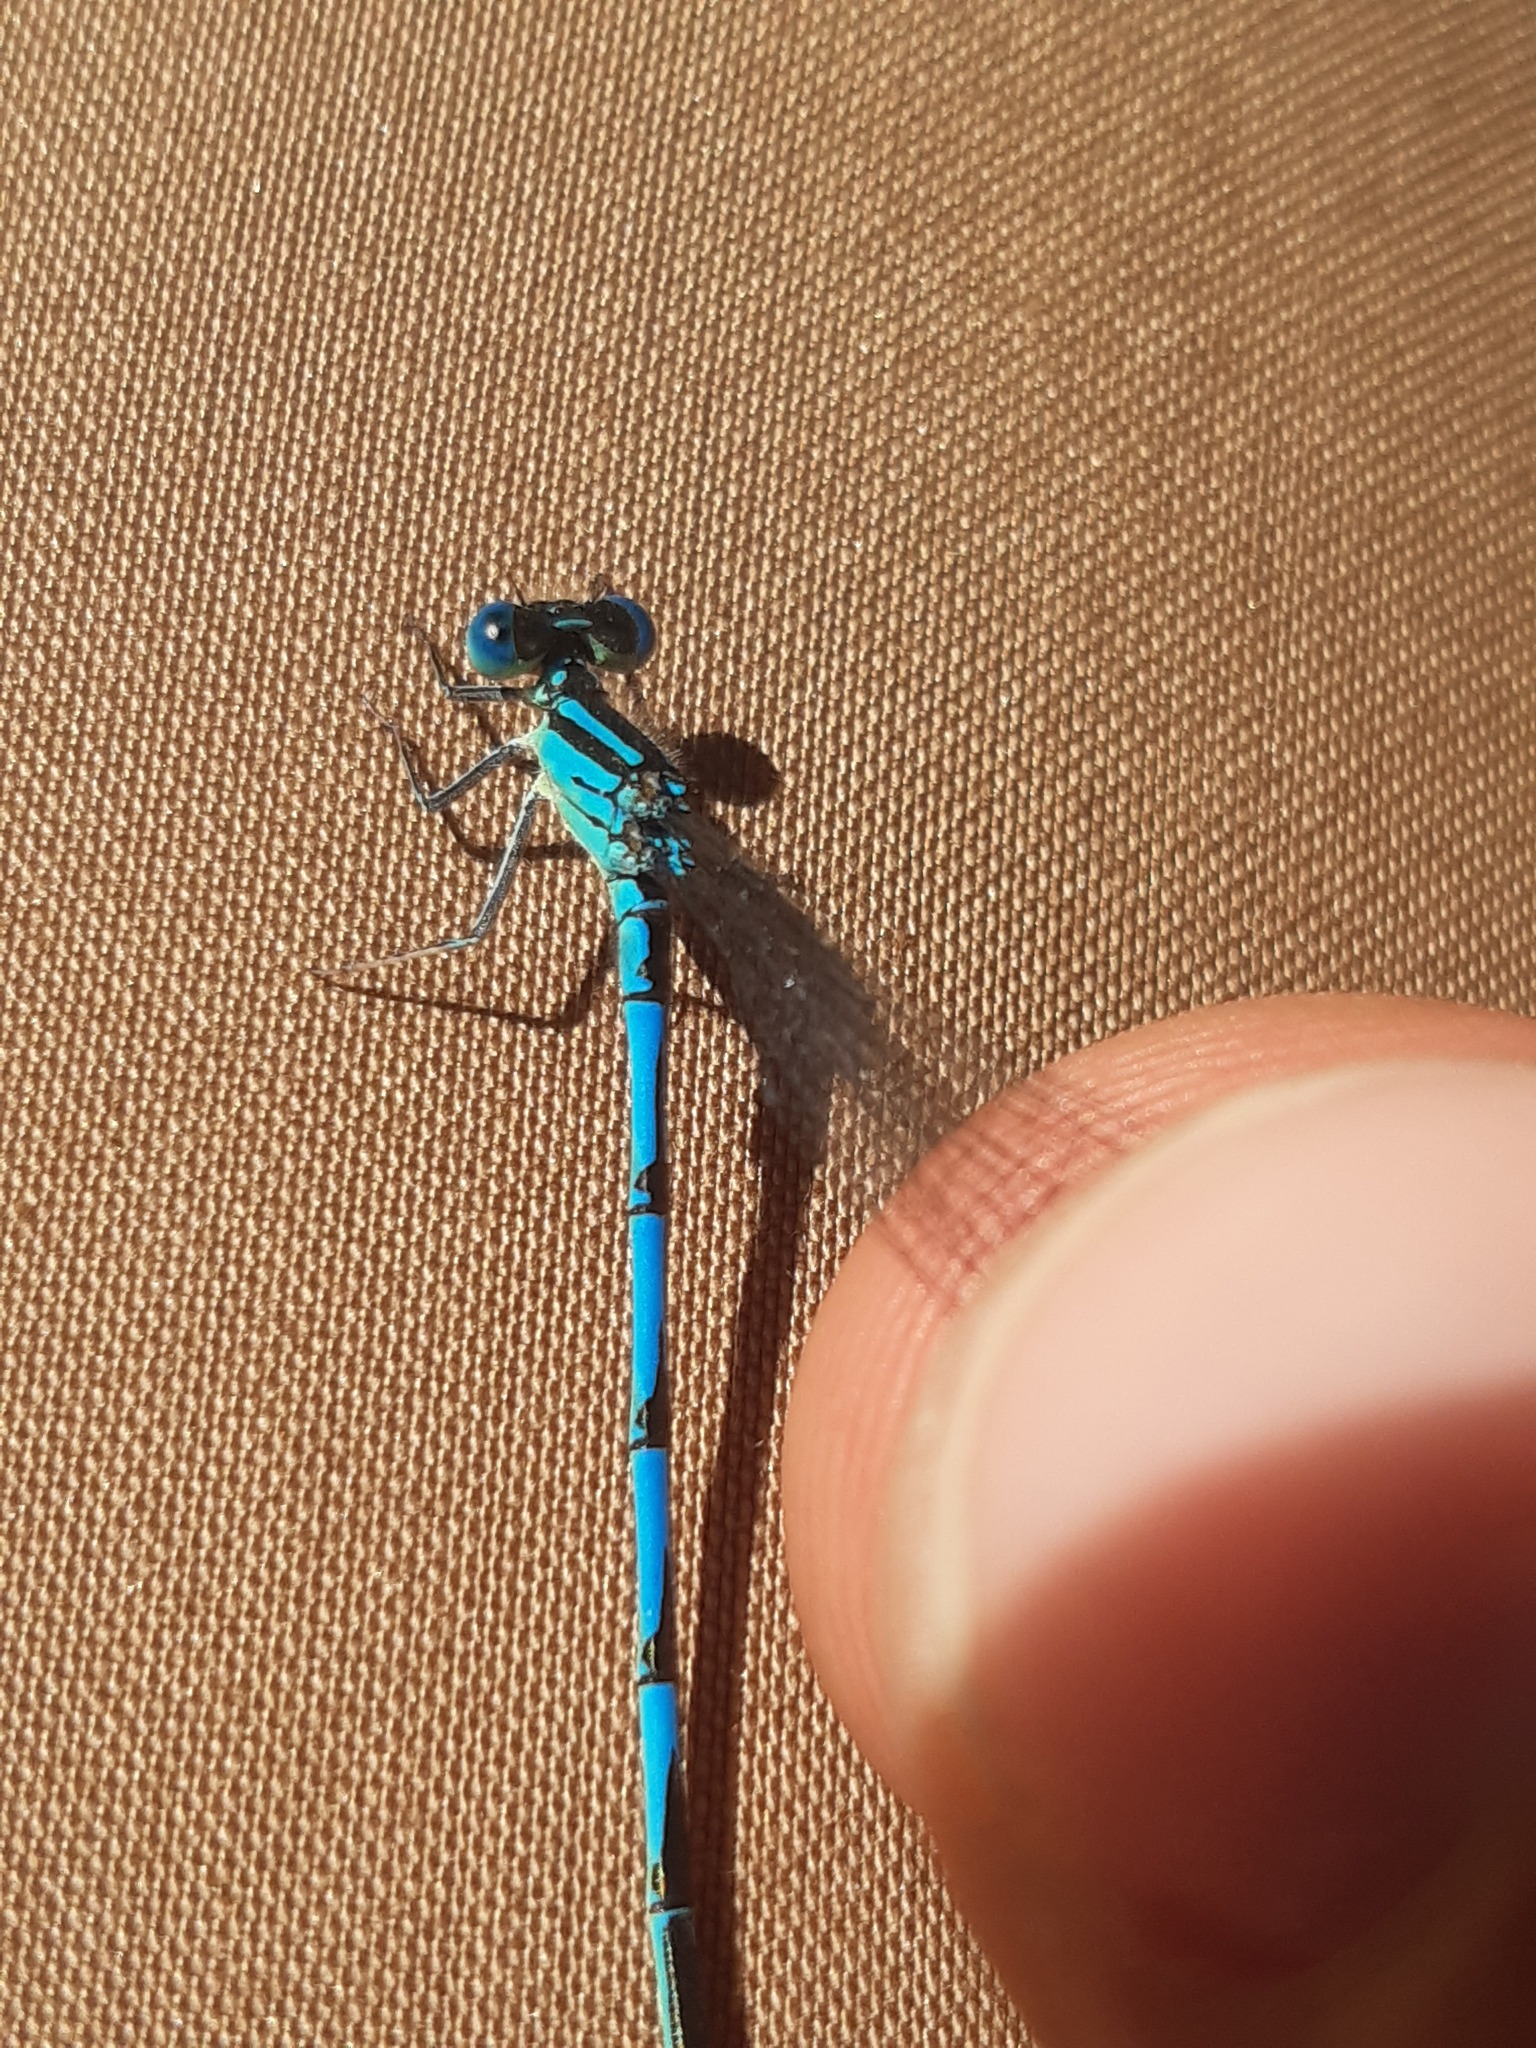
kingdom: Animalia
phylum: Arthropoda
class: Insecta
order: Odonata
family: Coenagrionidae
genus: Erythromma
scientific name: Erythromma lindenii
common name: Blue-eye
